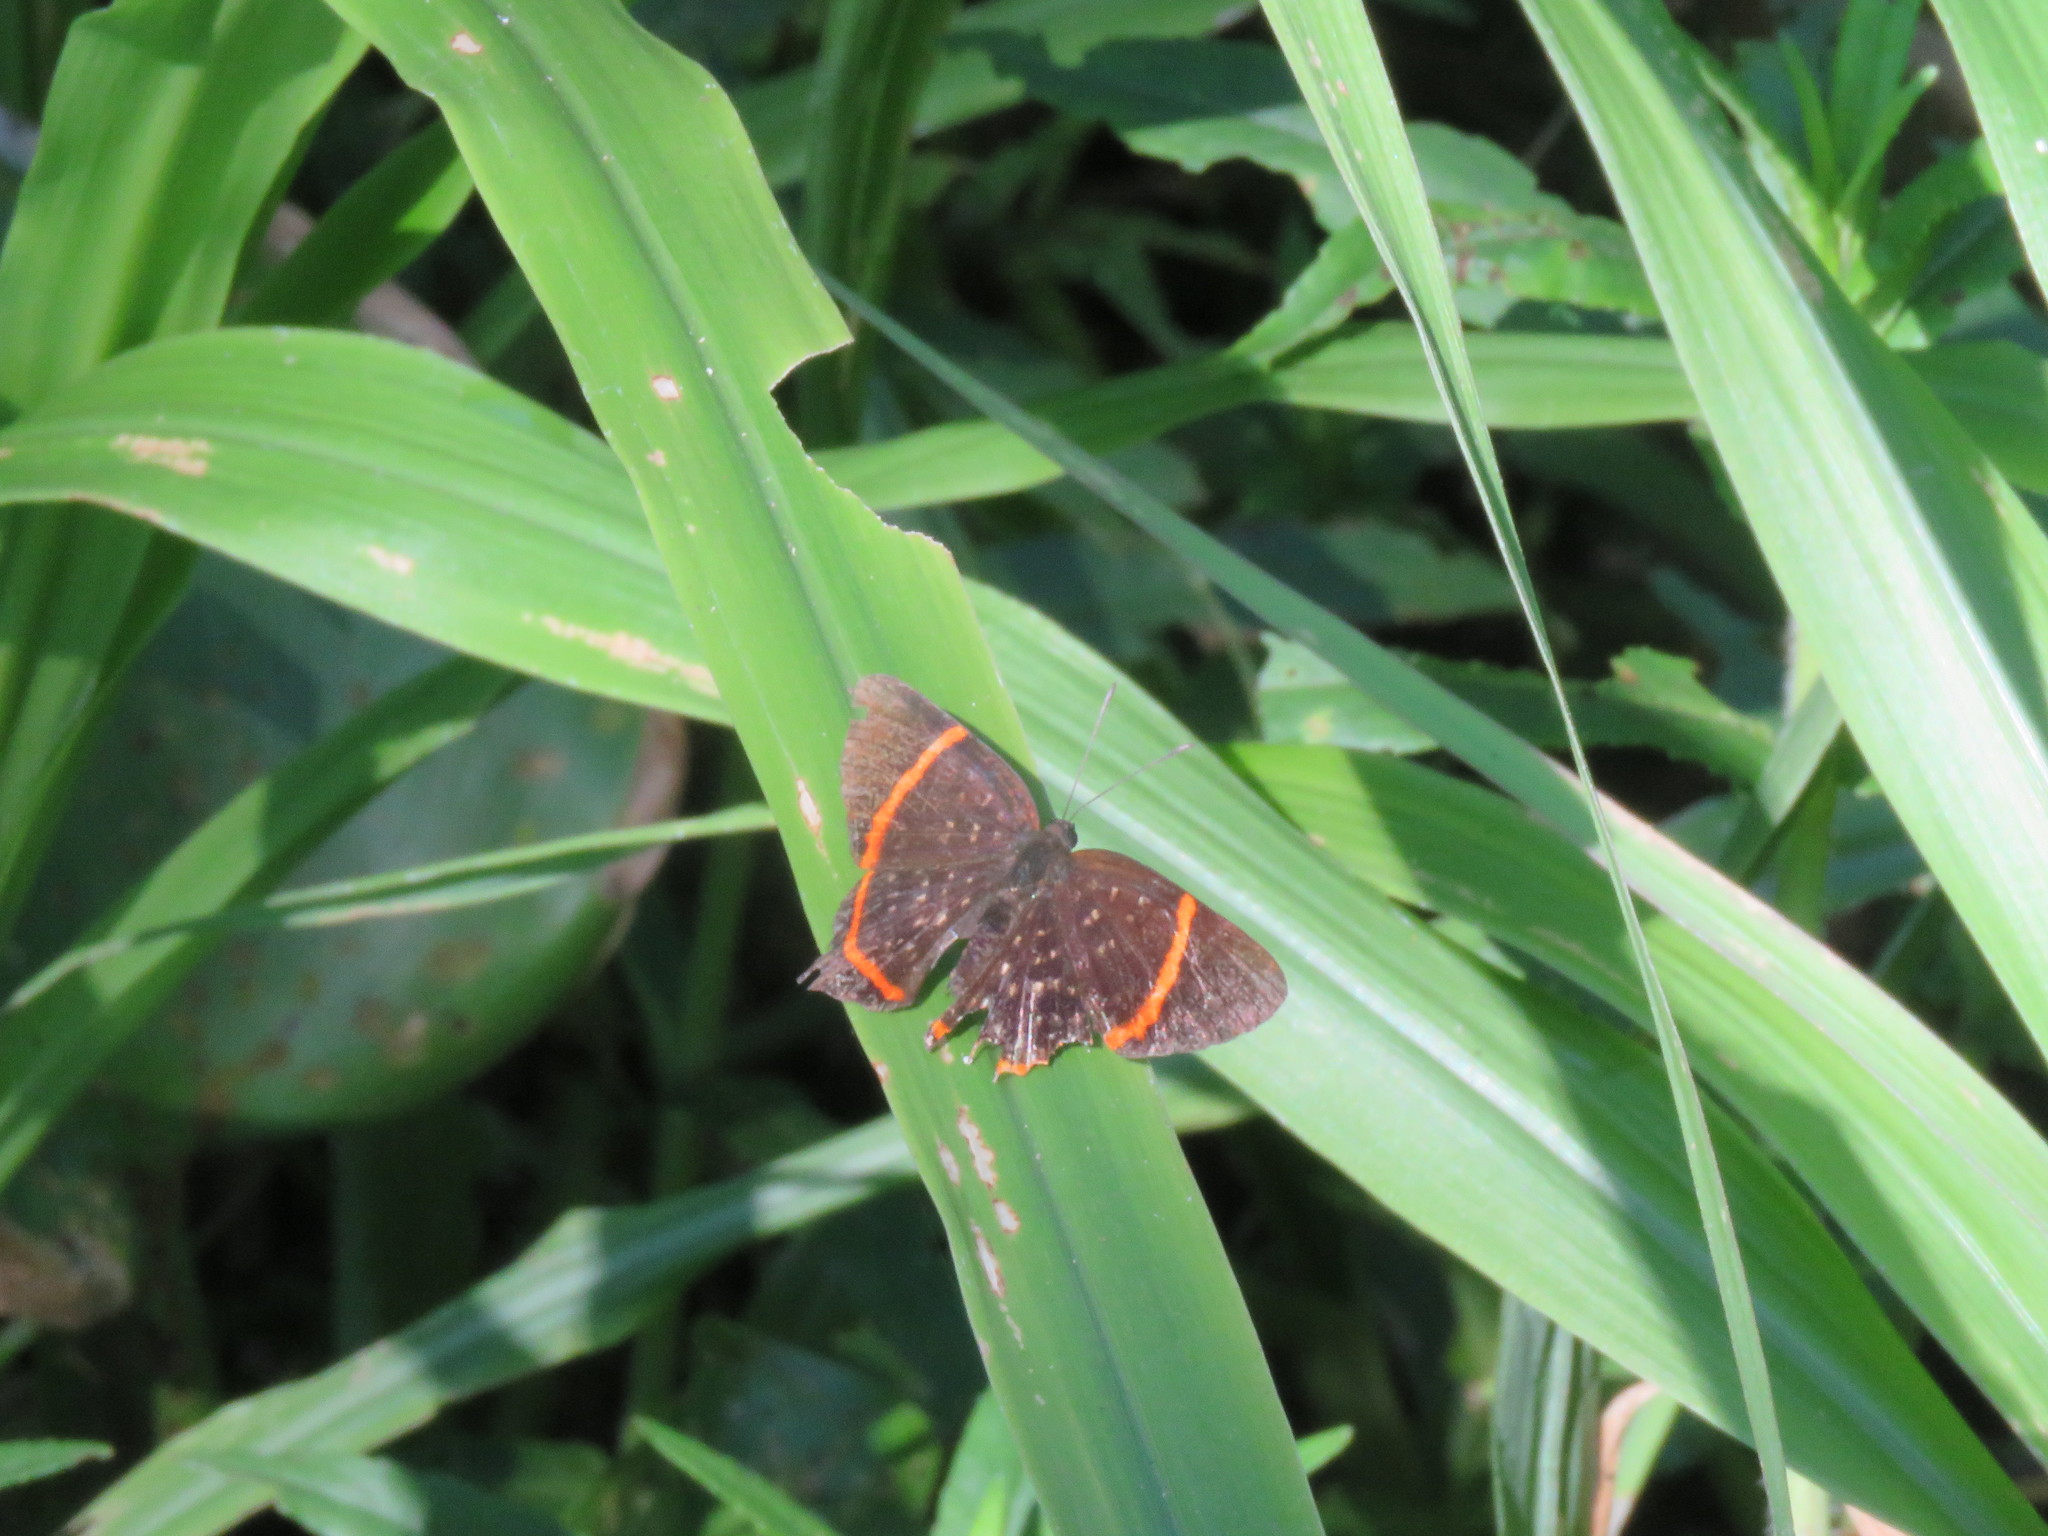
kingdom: Animalia
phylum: Arthropoda
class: Insecta
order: Lepidoptera
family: Riodinidae
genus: Riodina
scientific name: Riodina lysippus
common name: Lysippus metalmark
